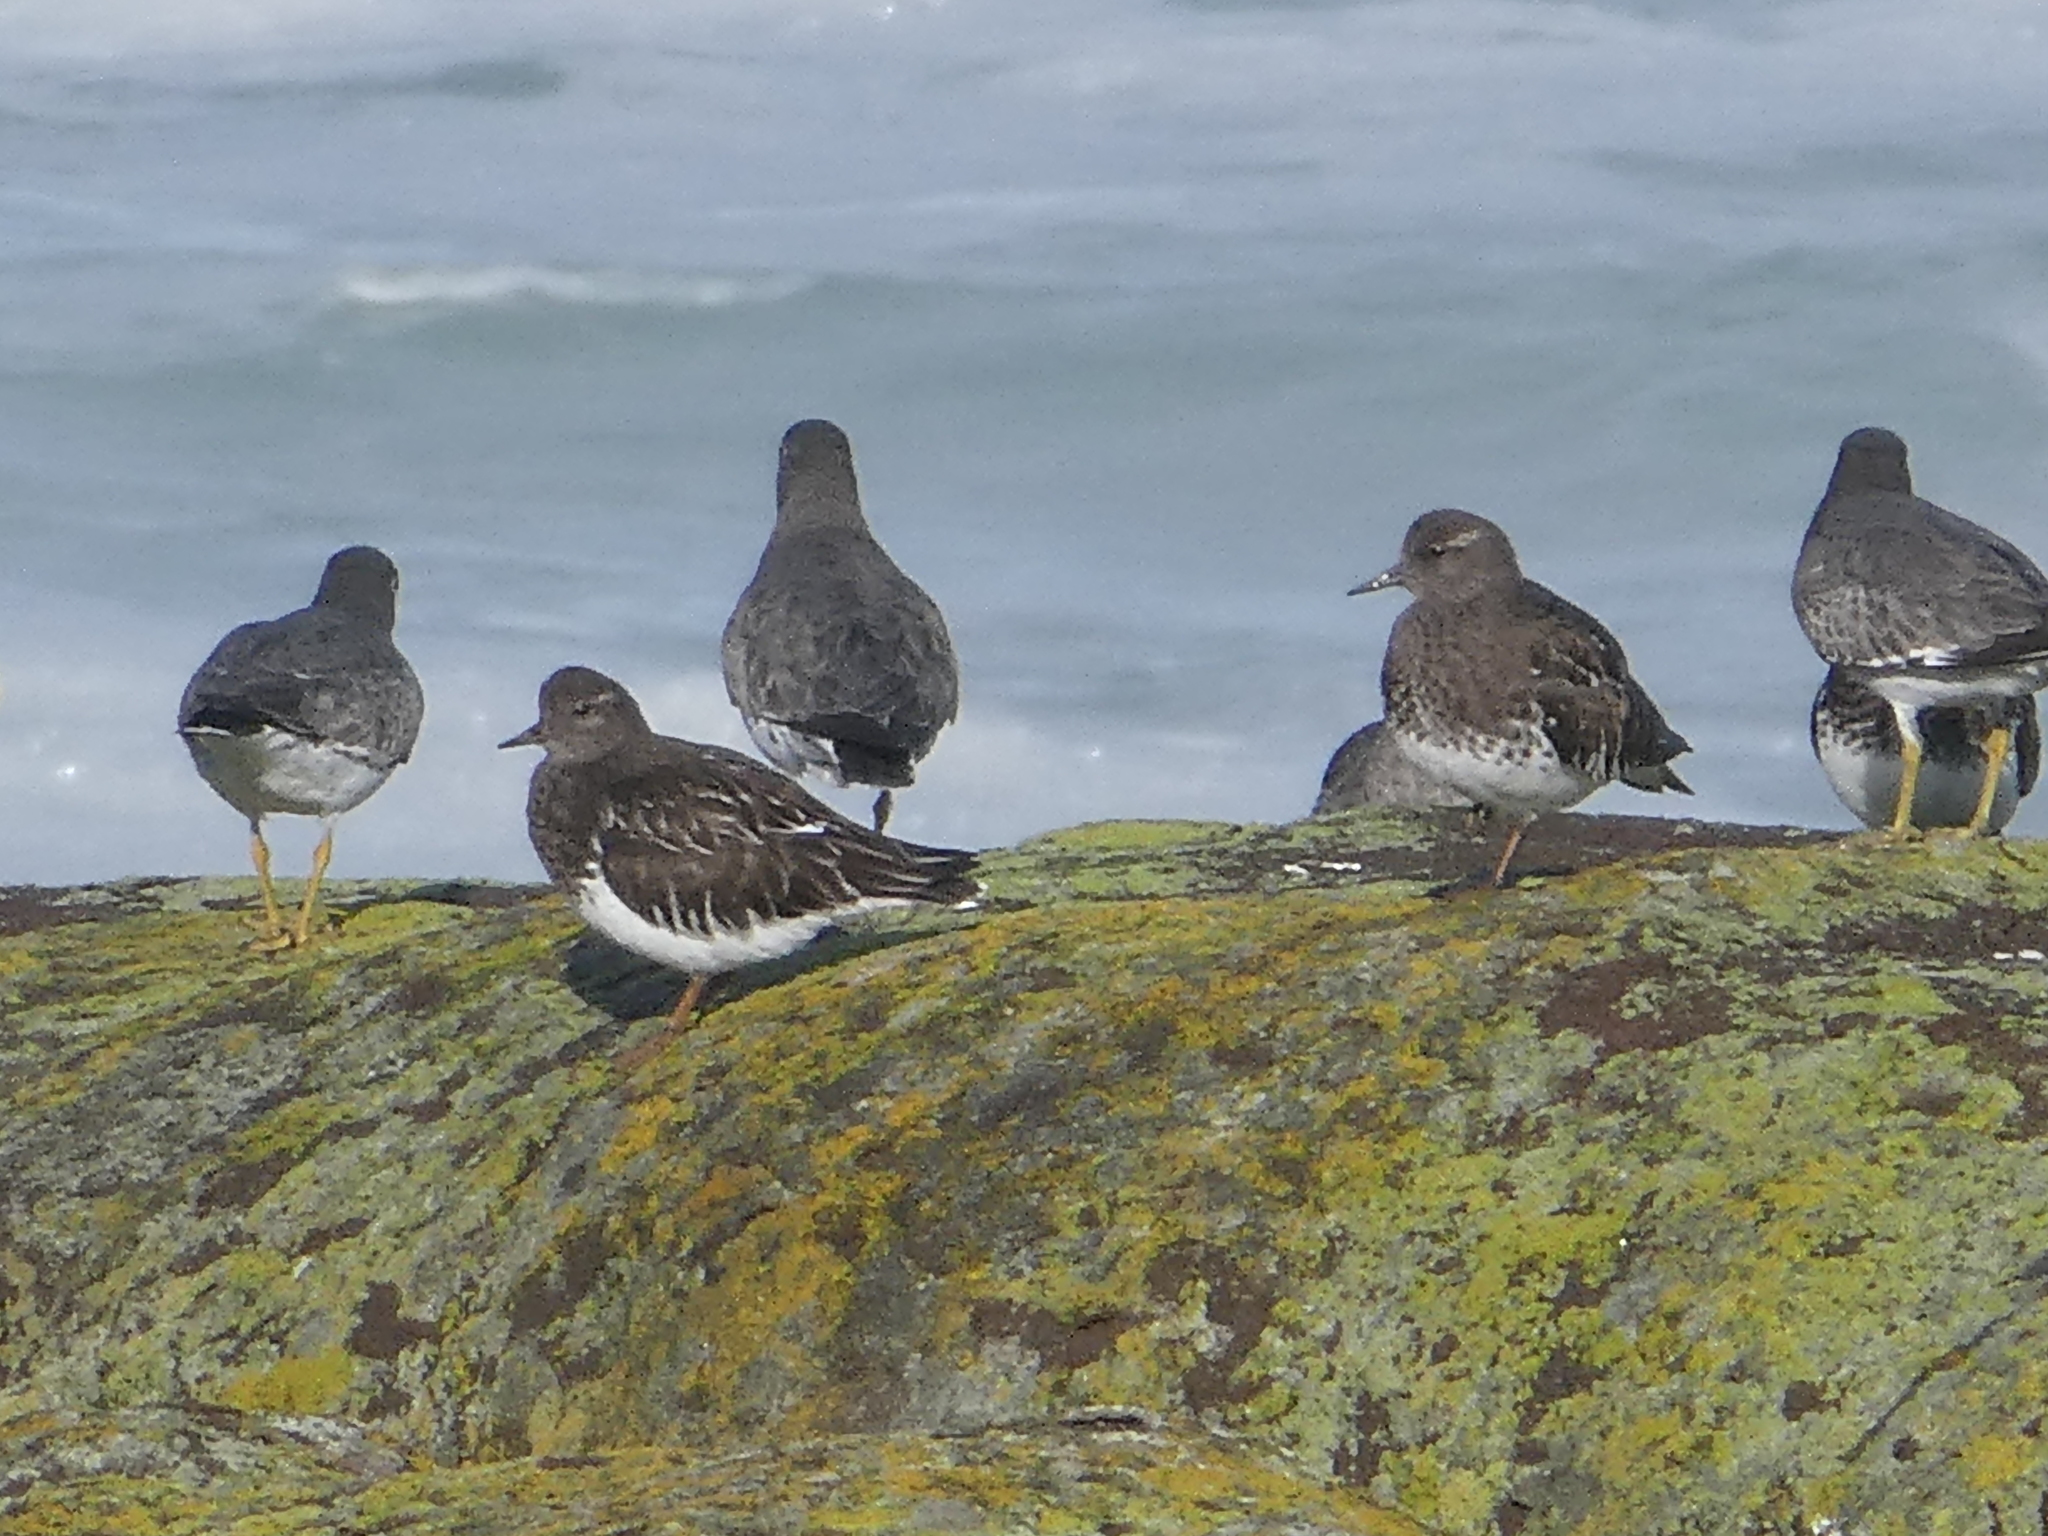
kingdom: Animalia
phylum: Chordata
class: Aves
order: Charadriiformes
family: Scolopacidae
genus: Arenaria
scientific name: Arenaria melanocephala
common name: Black turnstone
